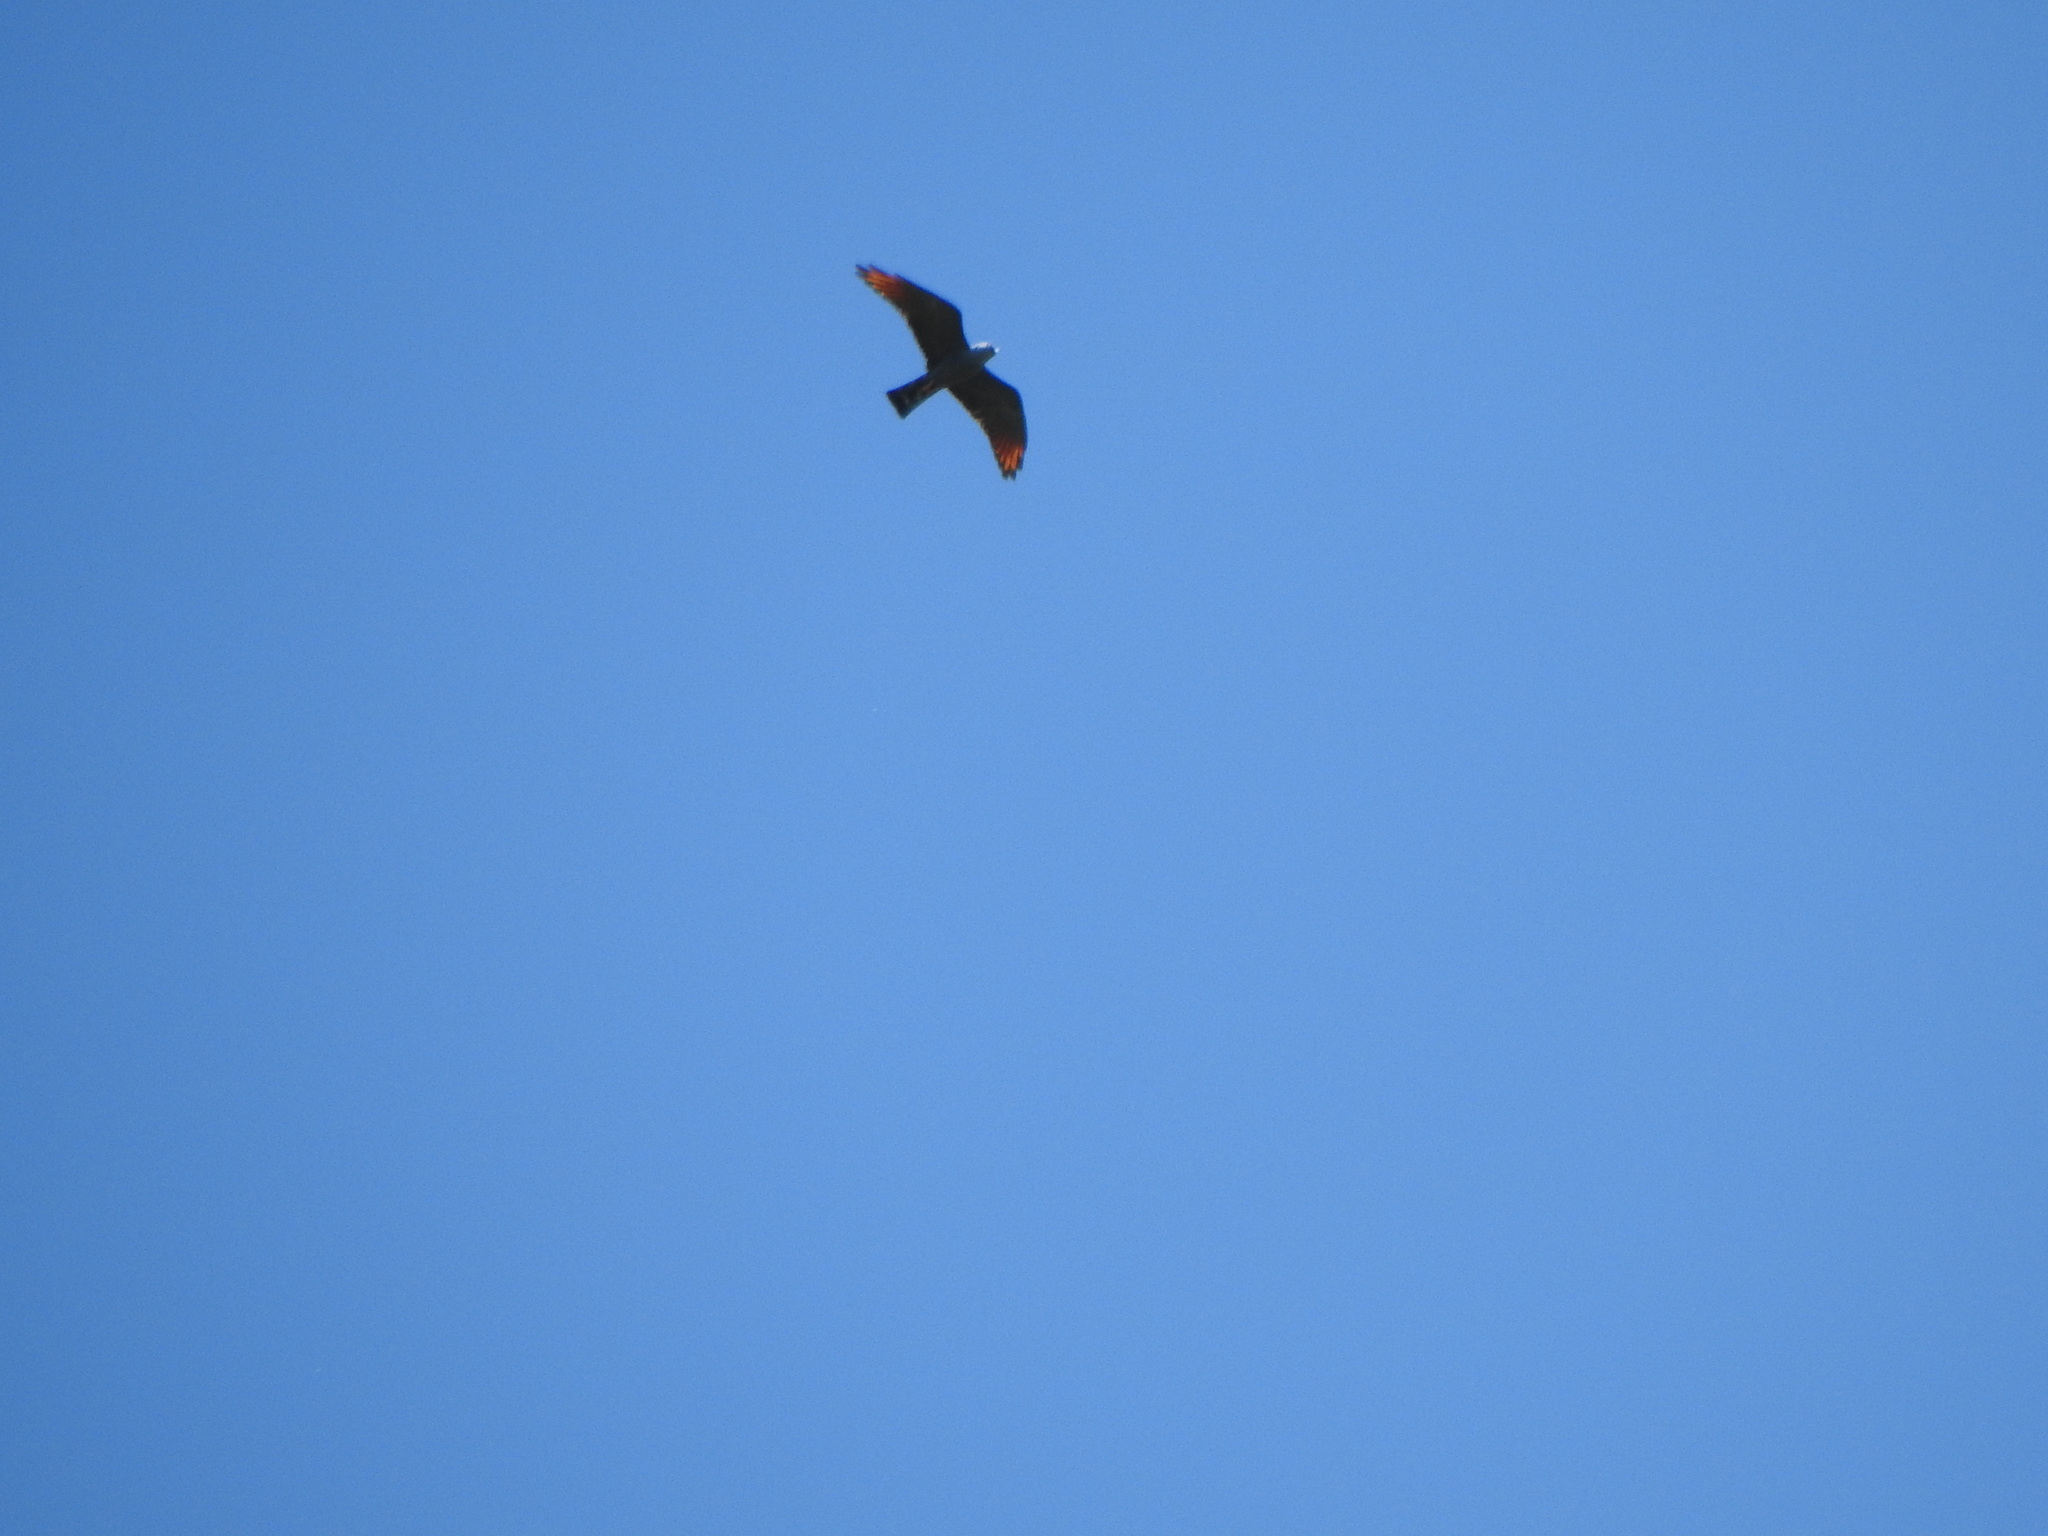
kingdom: Animalia
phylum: Chordata
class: Aves
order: Accipitriformes
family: Accipitridae
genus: Ictinia
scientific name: Ictinia plumbea
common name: Plumbeous kite
